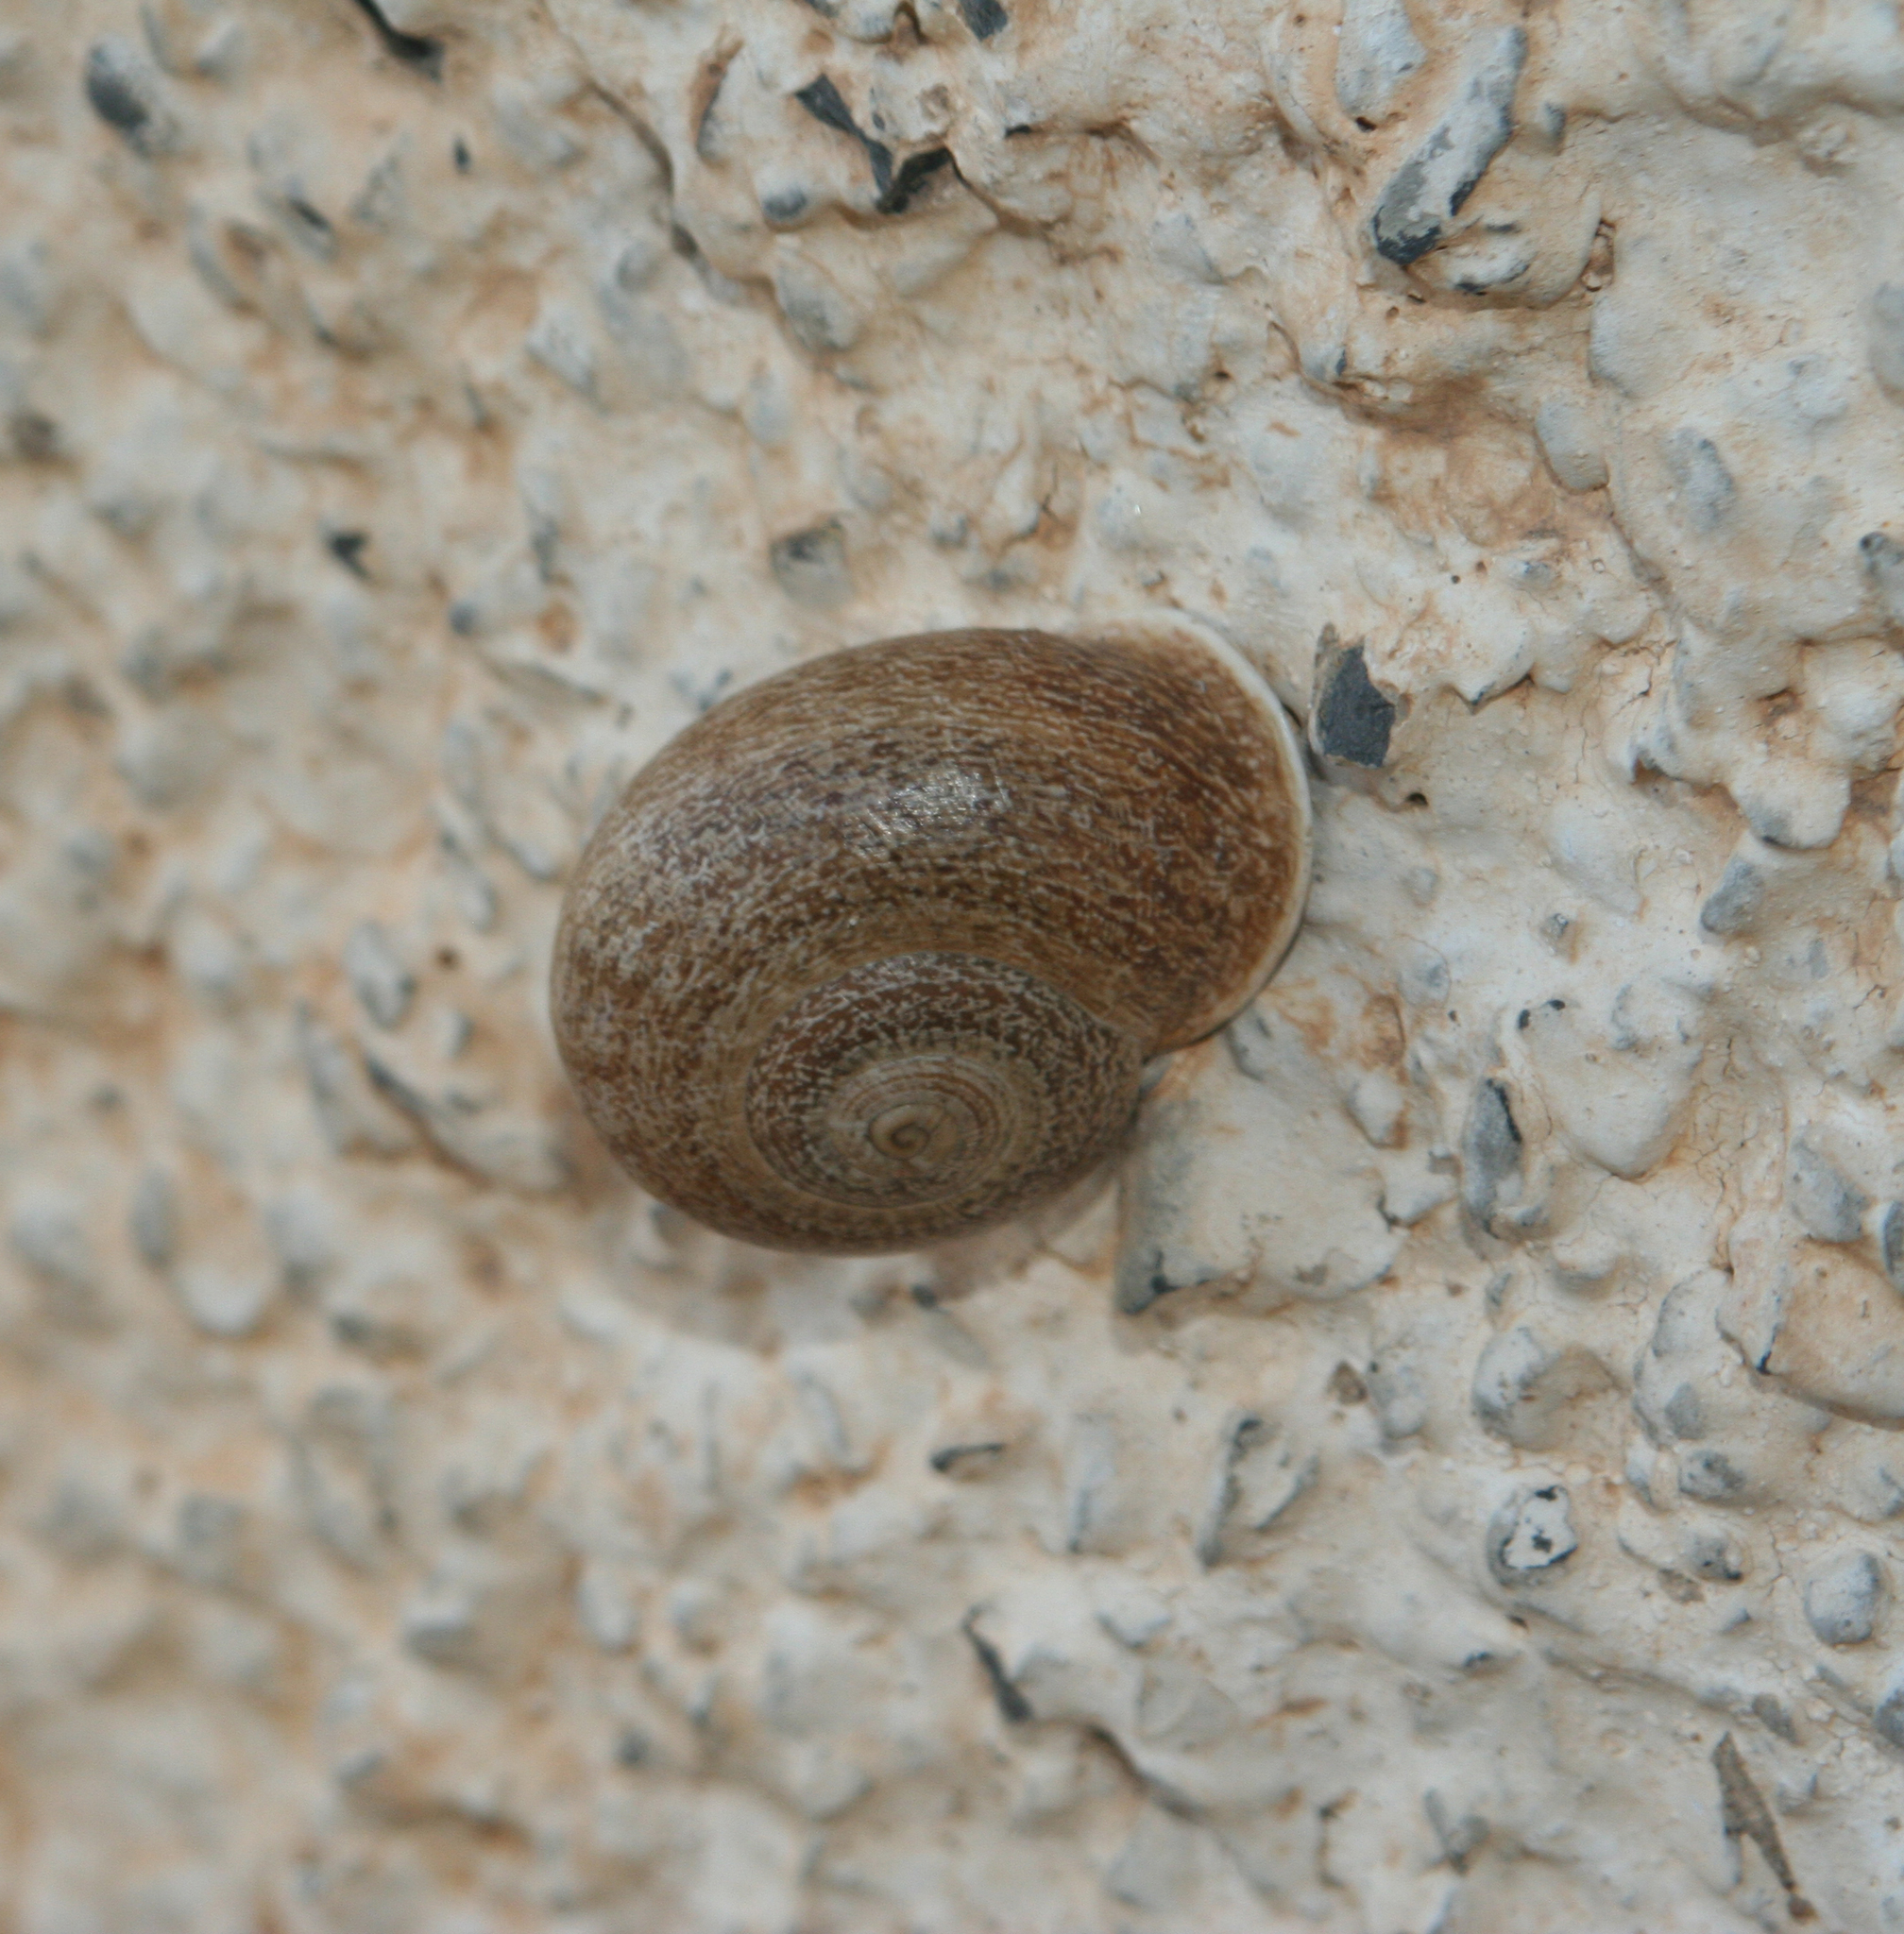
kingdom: Animalia
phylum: Mollusca
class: Gastropoda
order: Stylommatophora
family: Helicidae
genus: Otala
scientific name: Otala lactea
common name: Milk snail
